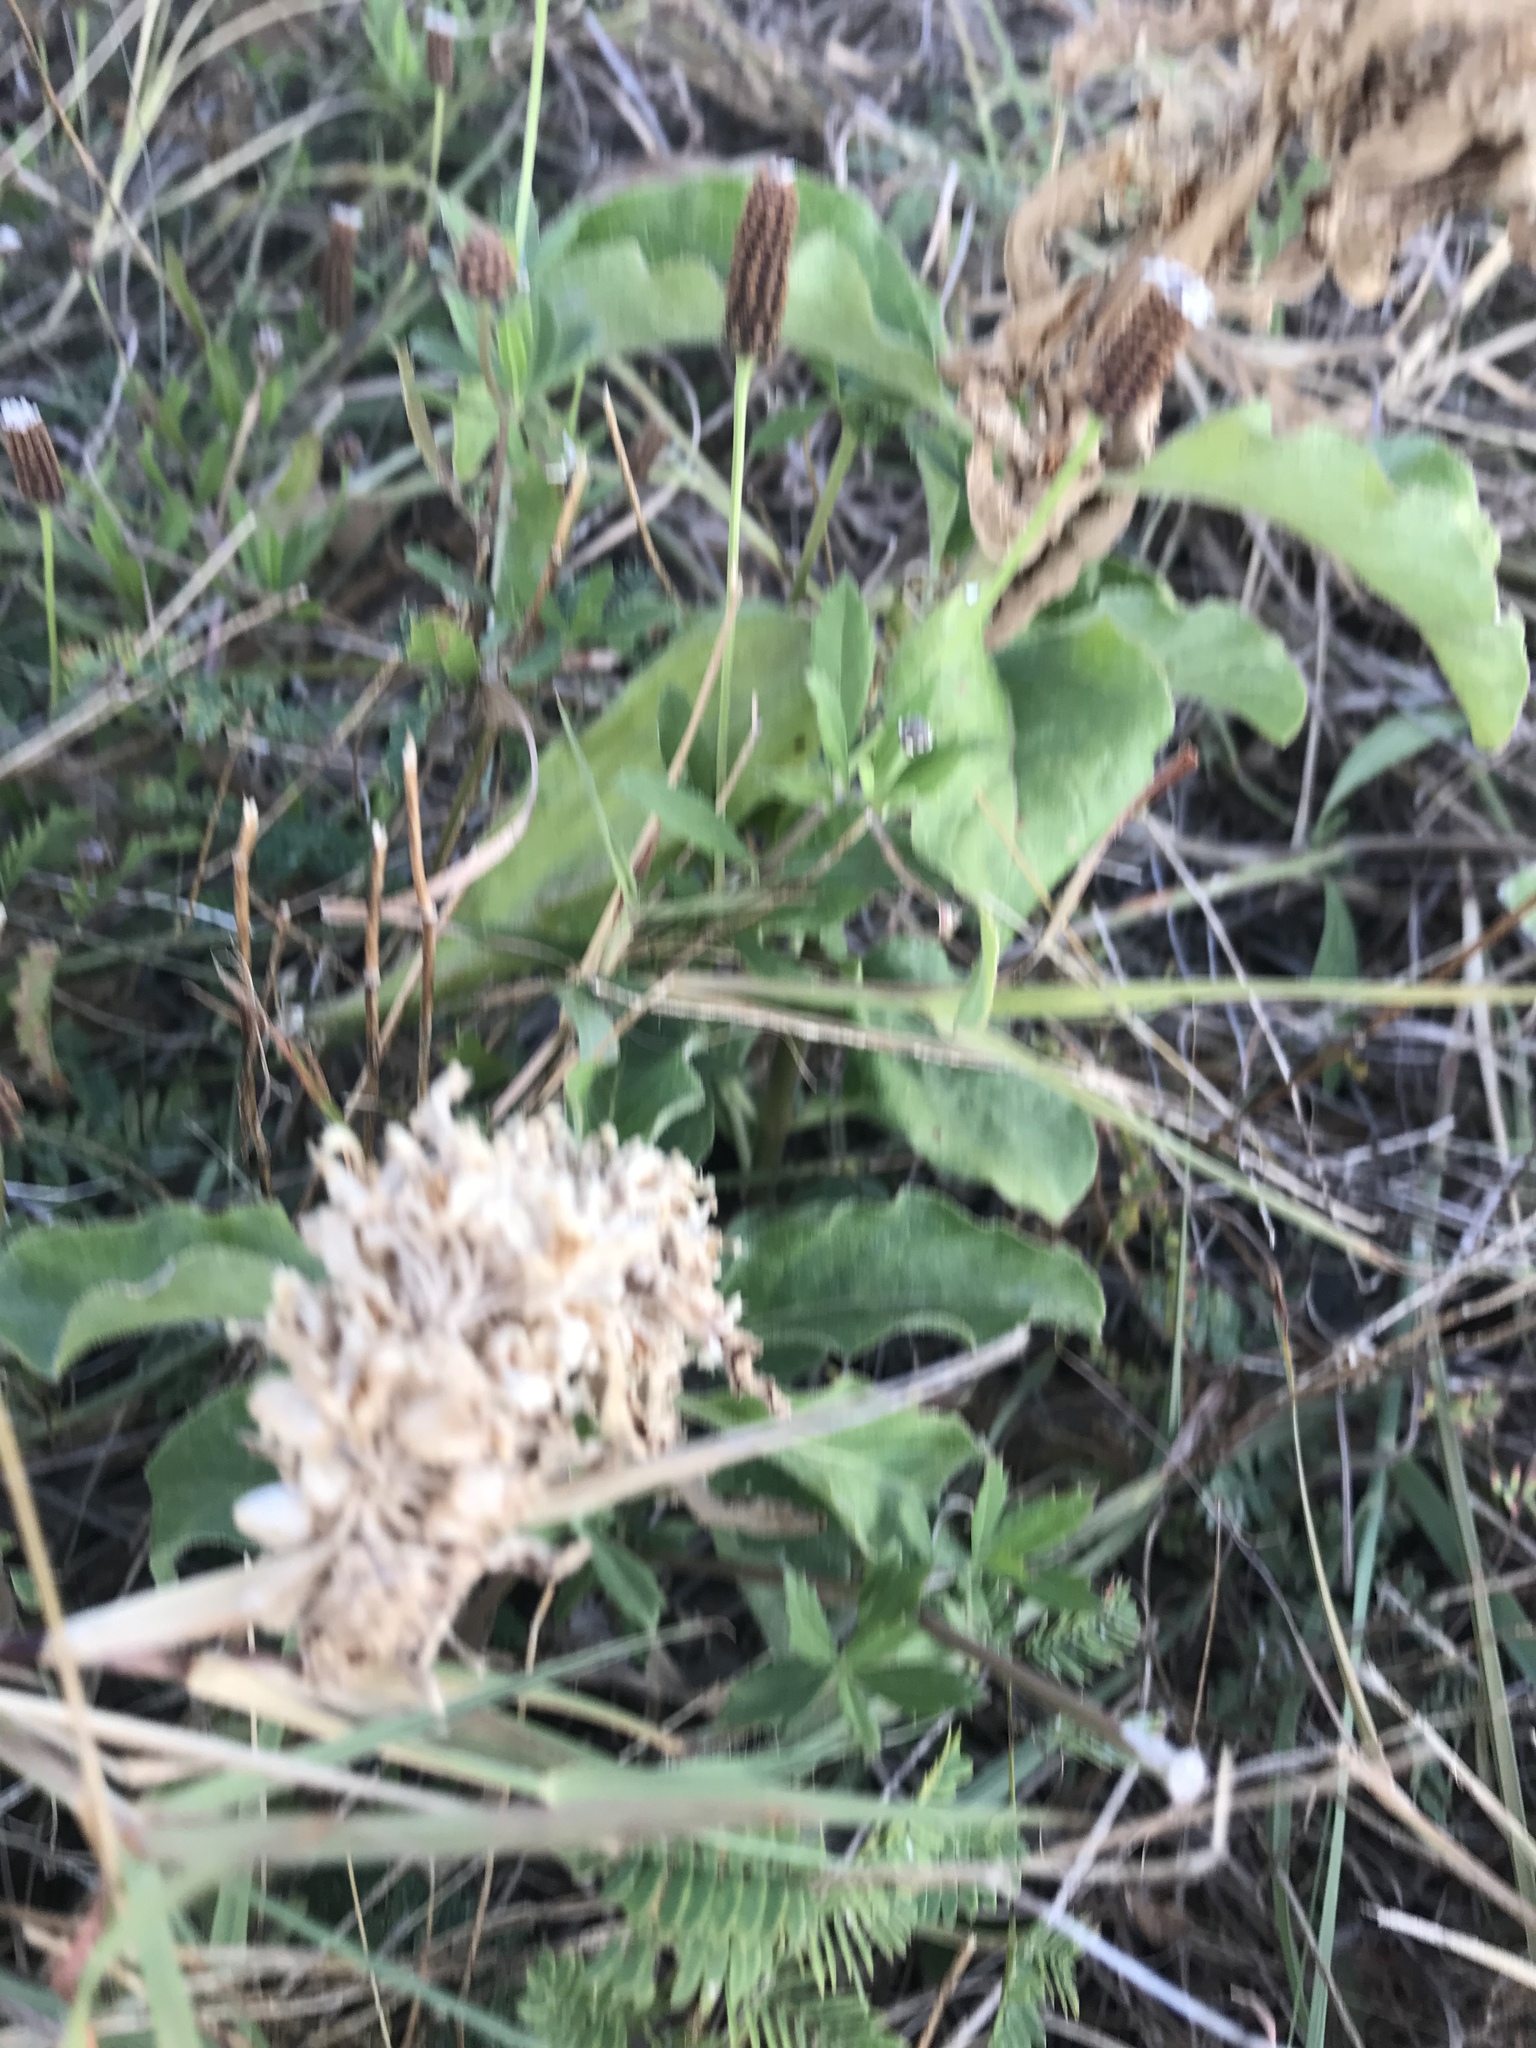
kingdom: Plantae
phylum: Tracheophyta
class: Magnoliopsida
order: Gentianales
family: Apocynaceae
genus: Asclepias
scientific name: Asclepias oenotheroides
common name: Zizotes milkweed
